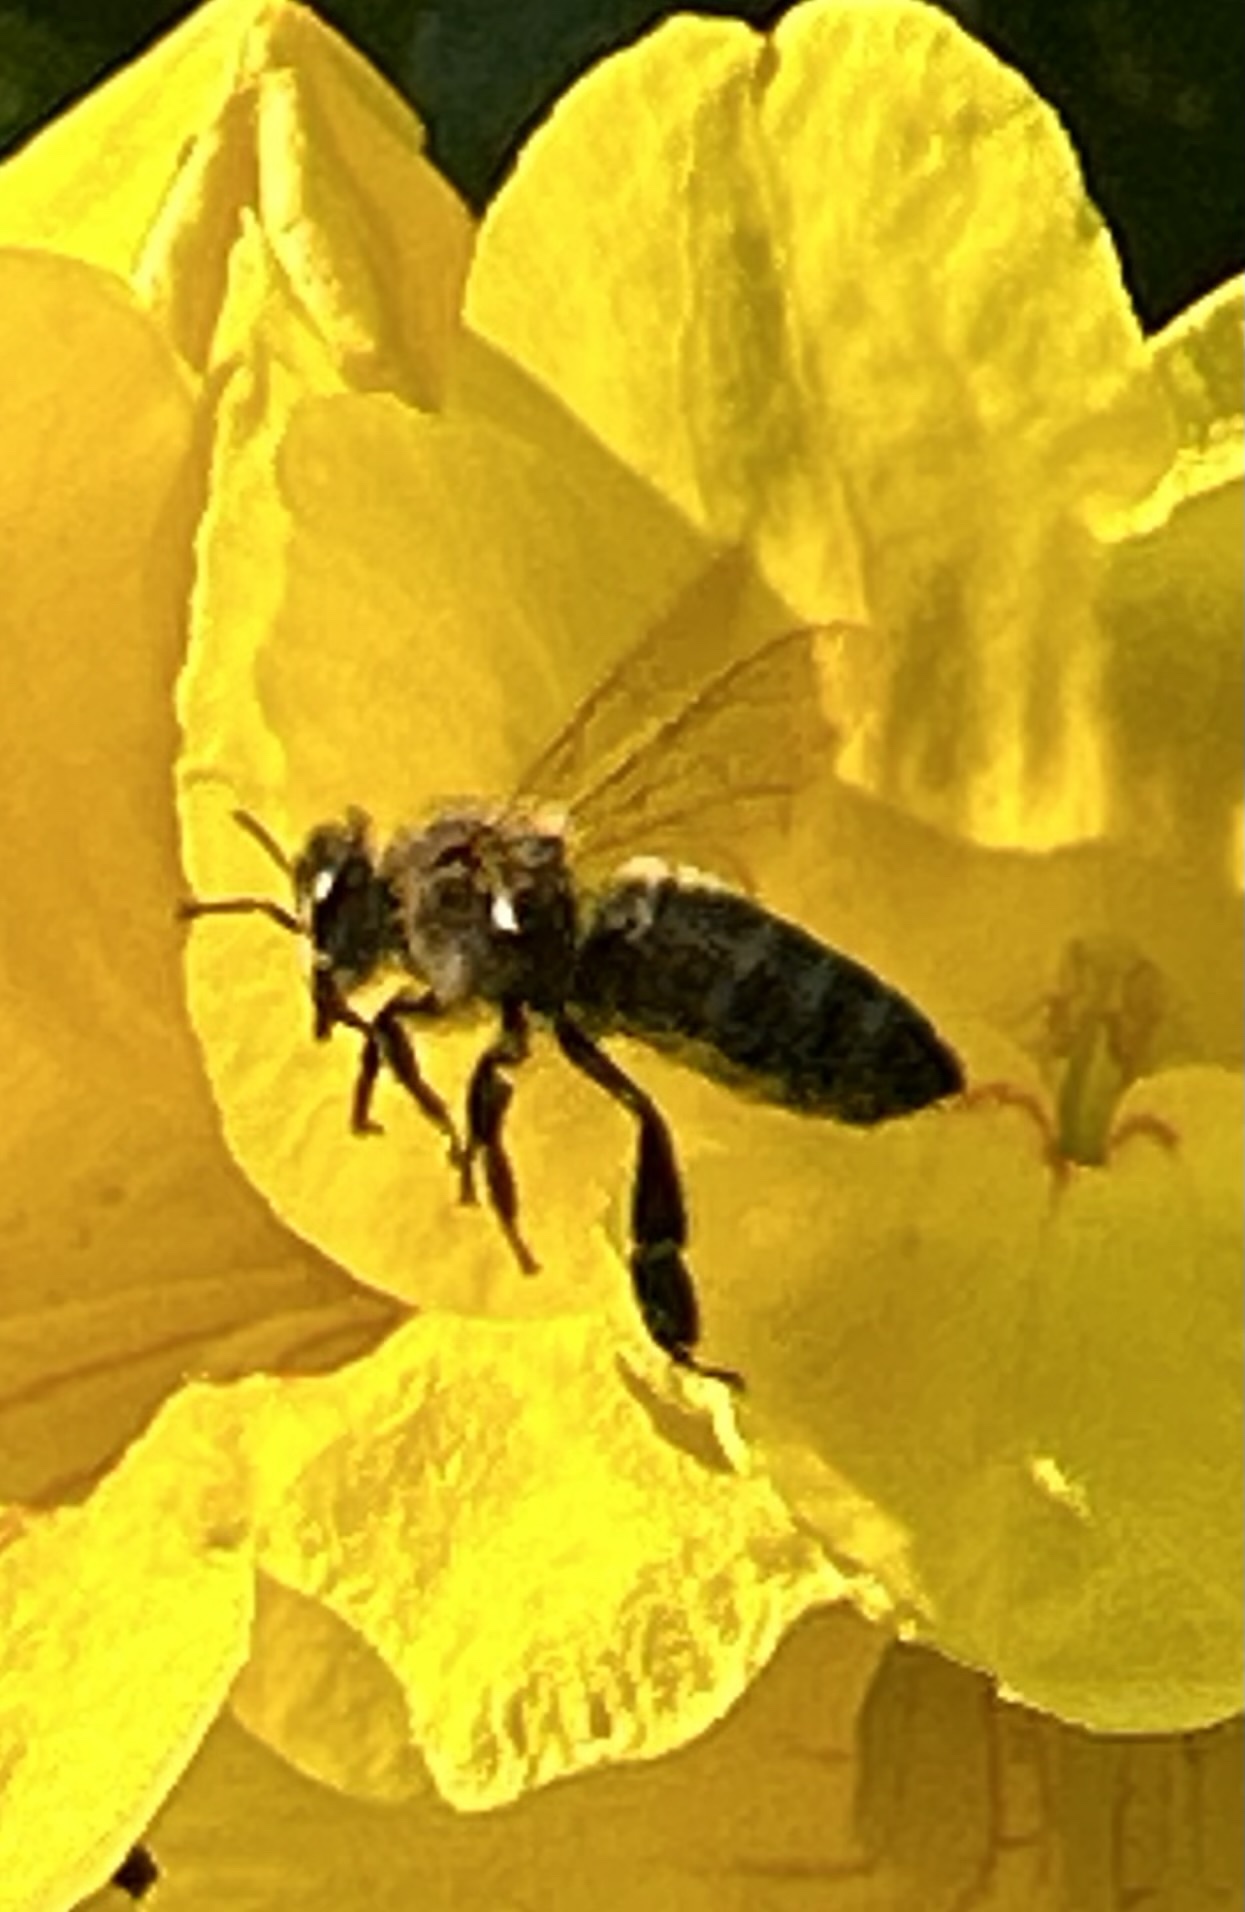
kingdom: Animalia
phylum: Arthropoda
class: Insecta
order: Hymenoptera
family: Apidae
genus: Apis
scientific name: Apis mellifera
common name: Honey bee
